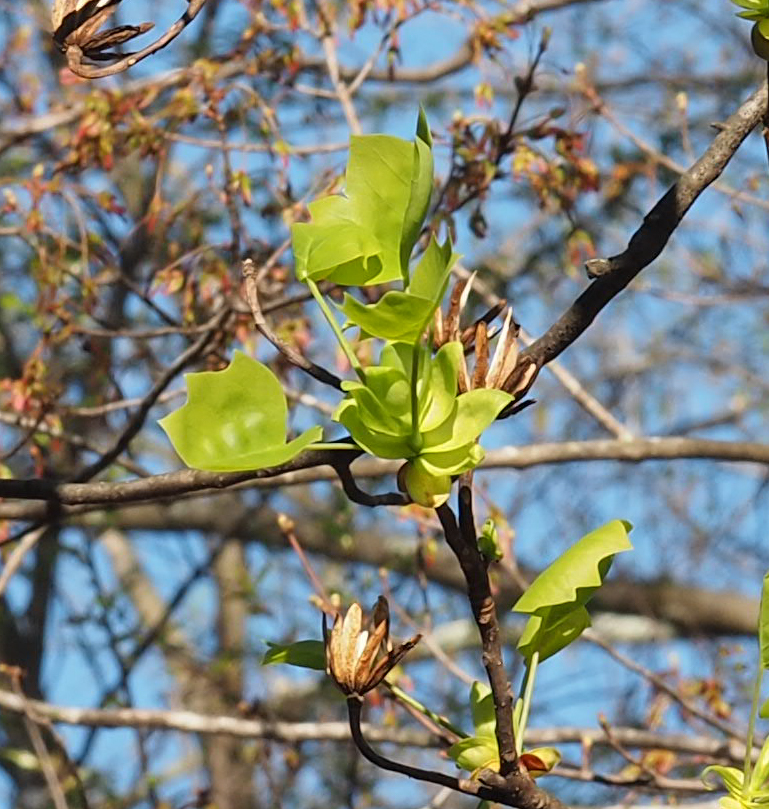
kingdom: Plantae
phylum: Tracheophyta
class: Magnoliopsida
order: Magnoliales
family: Magnoliaceae
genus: Liriodendron
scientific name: Liriodendron tulipifera
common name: Tulip tree
